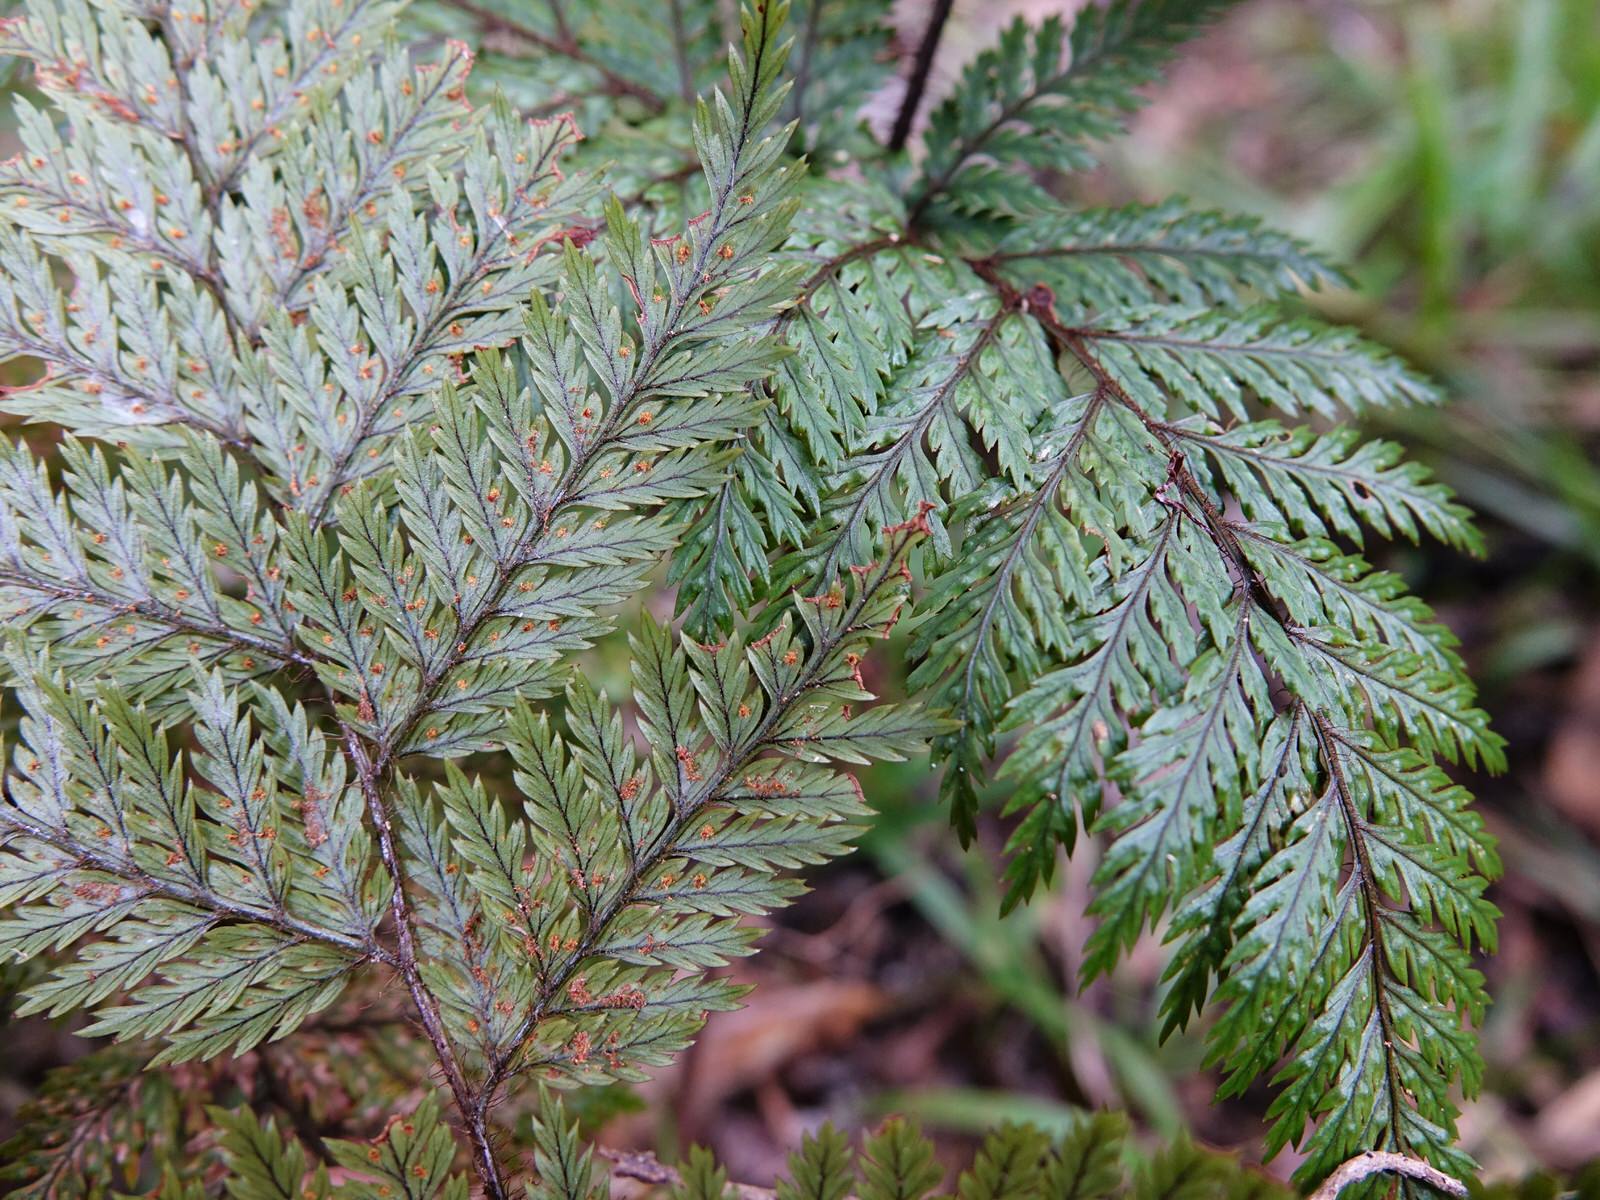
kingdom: Plantae
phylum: Tracheophyta
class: Polypodiopsida
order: Polypodiales
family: Dryopteridaceae
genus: Lastreopsis
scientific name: Lastreopsis hispida
